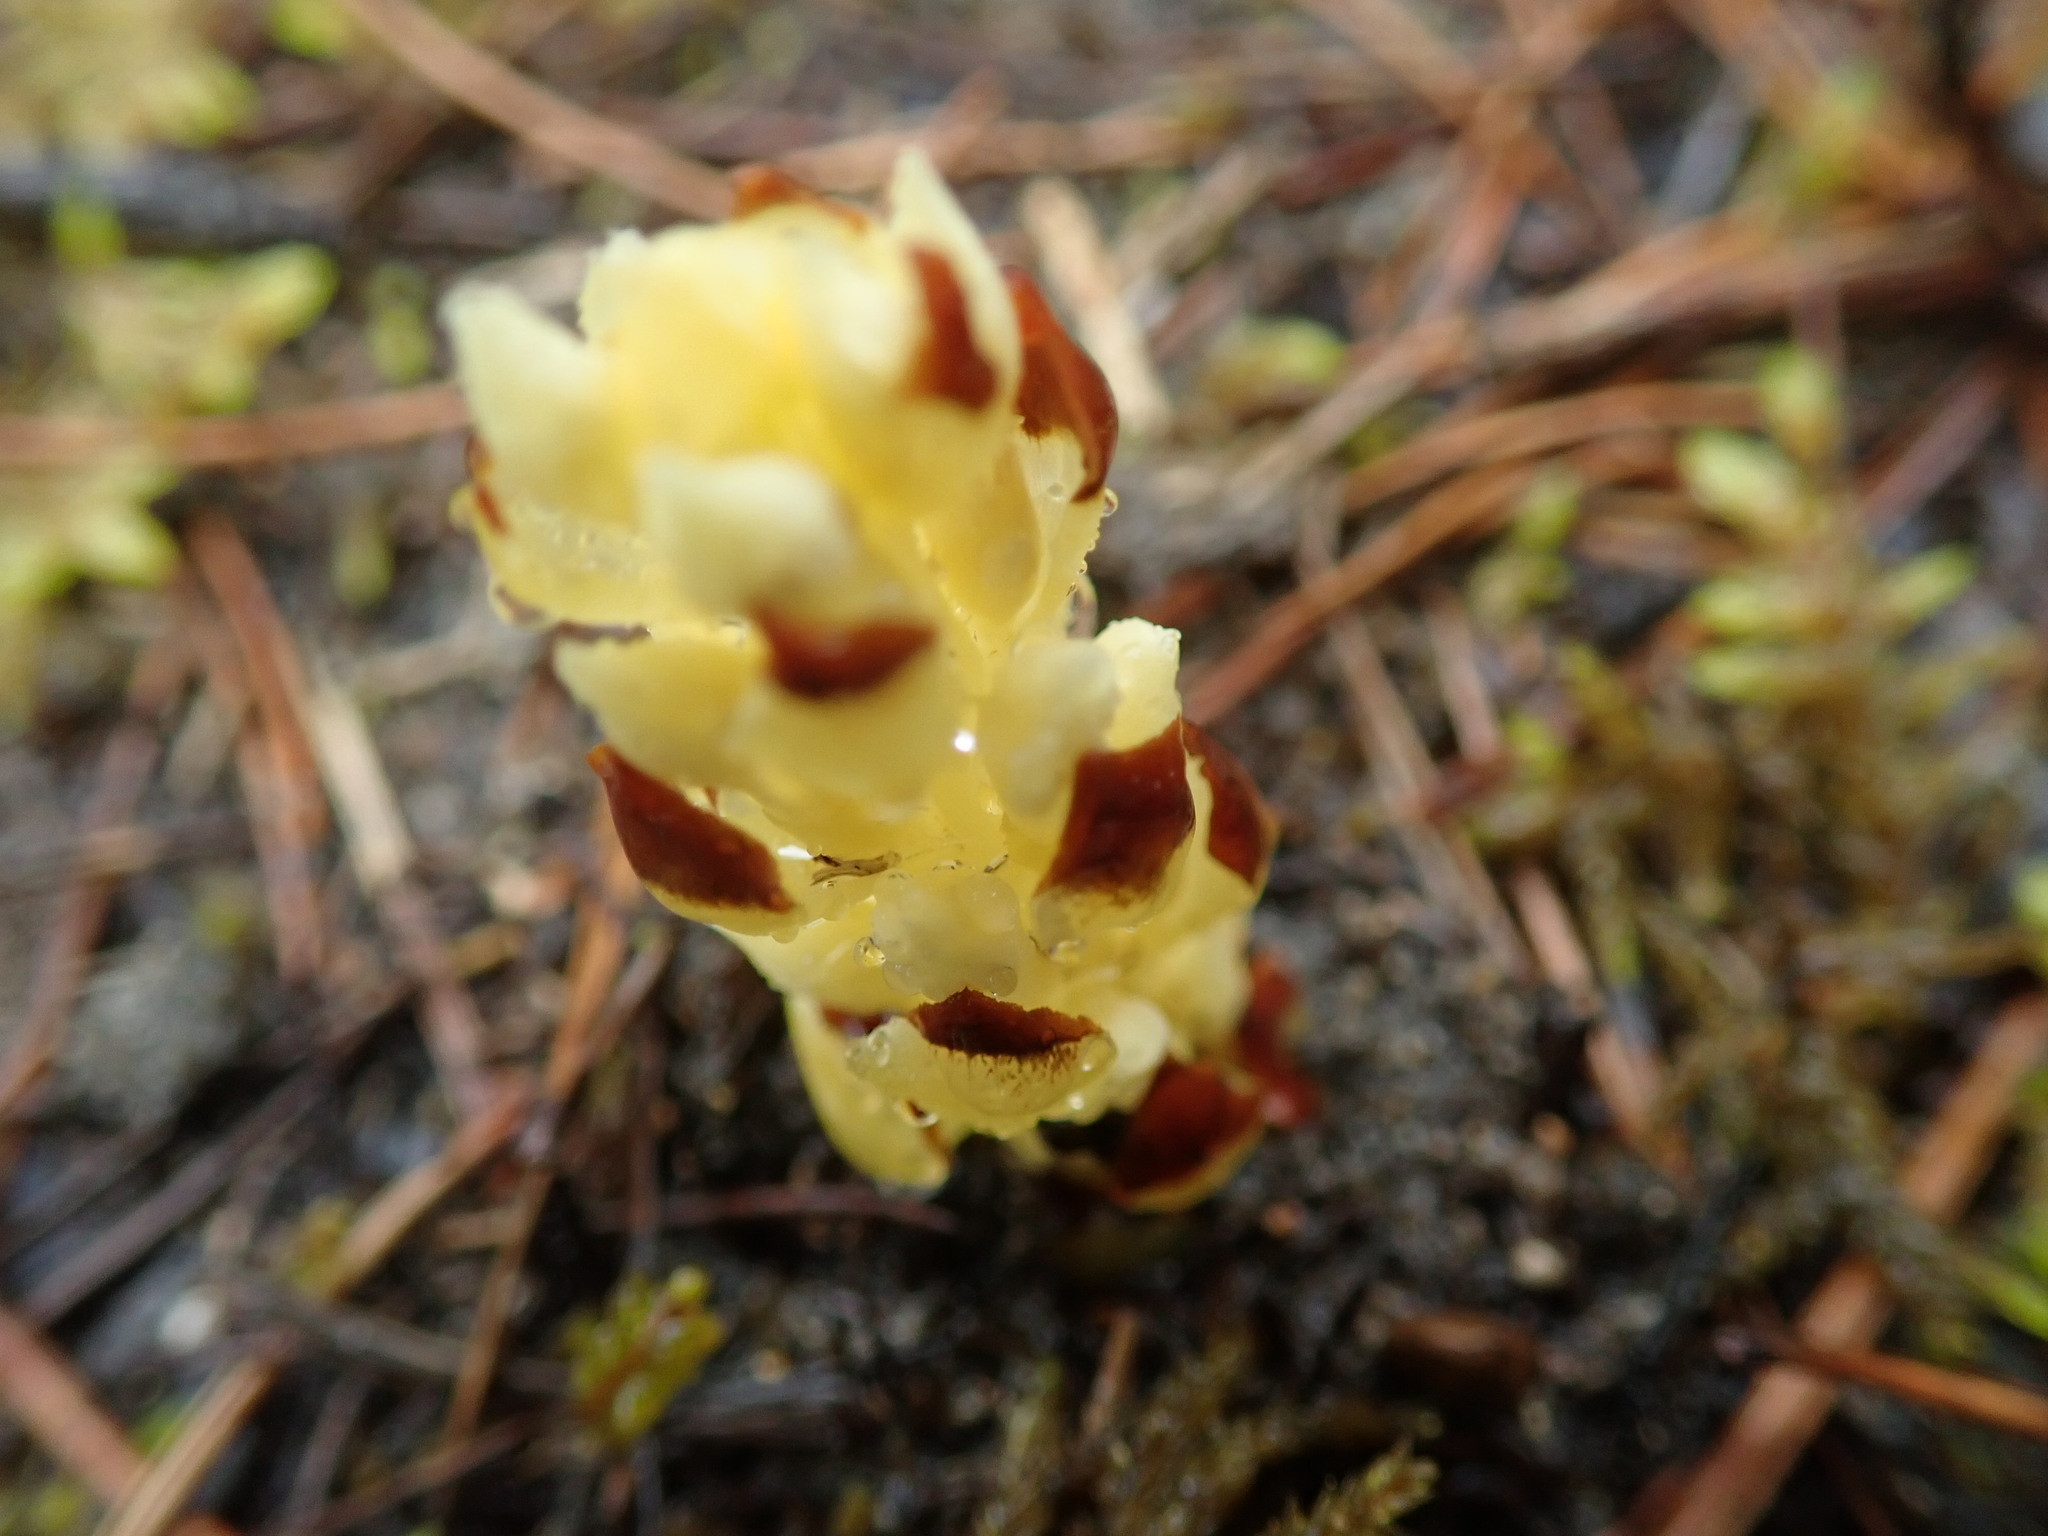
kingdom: Plantae
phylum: Tracheophyta
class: Magnoliopsida
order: Lamiales
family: Orobanchaceae
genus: Kopsiopsis
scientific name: Kopsiopsis hookeri
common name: Hooker's groundcone
